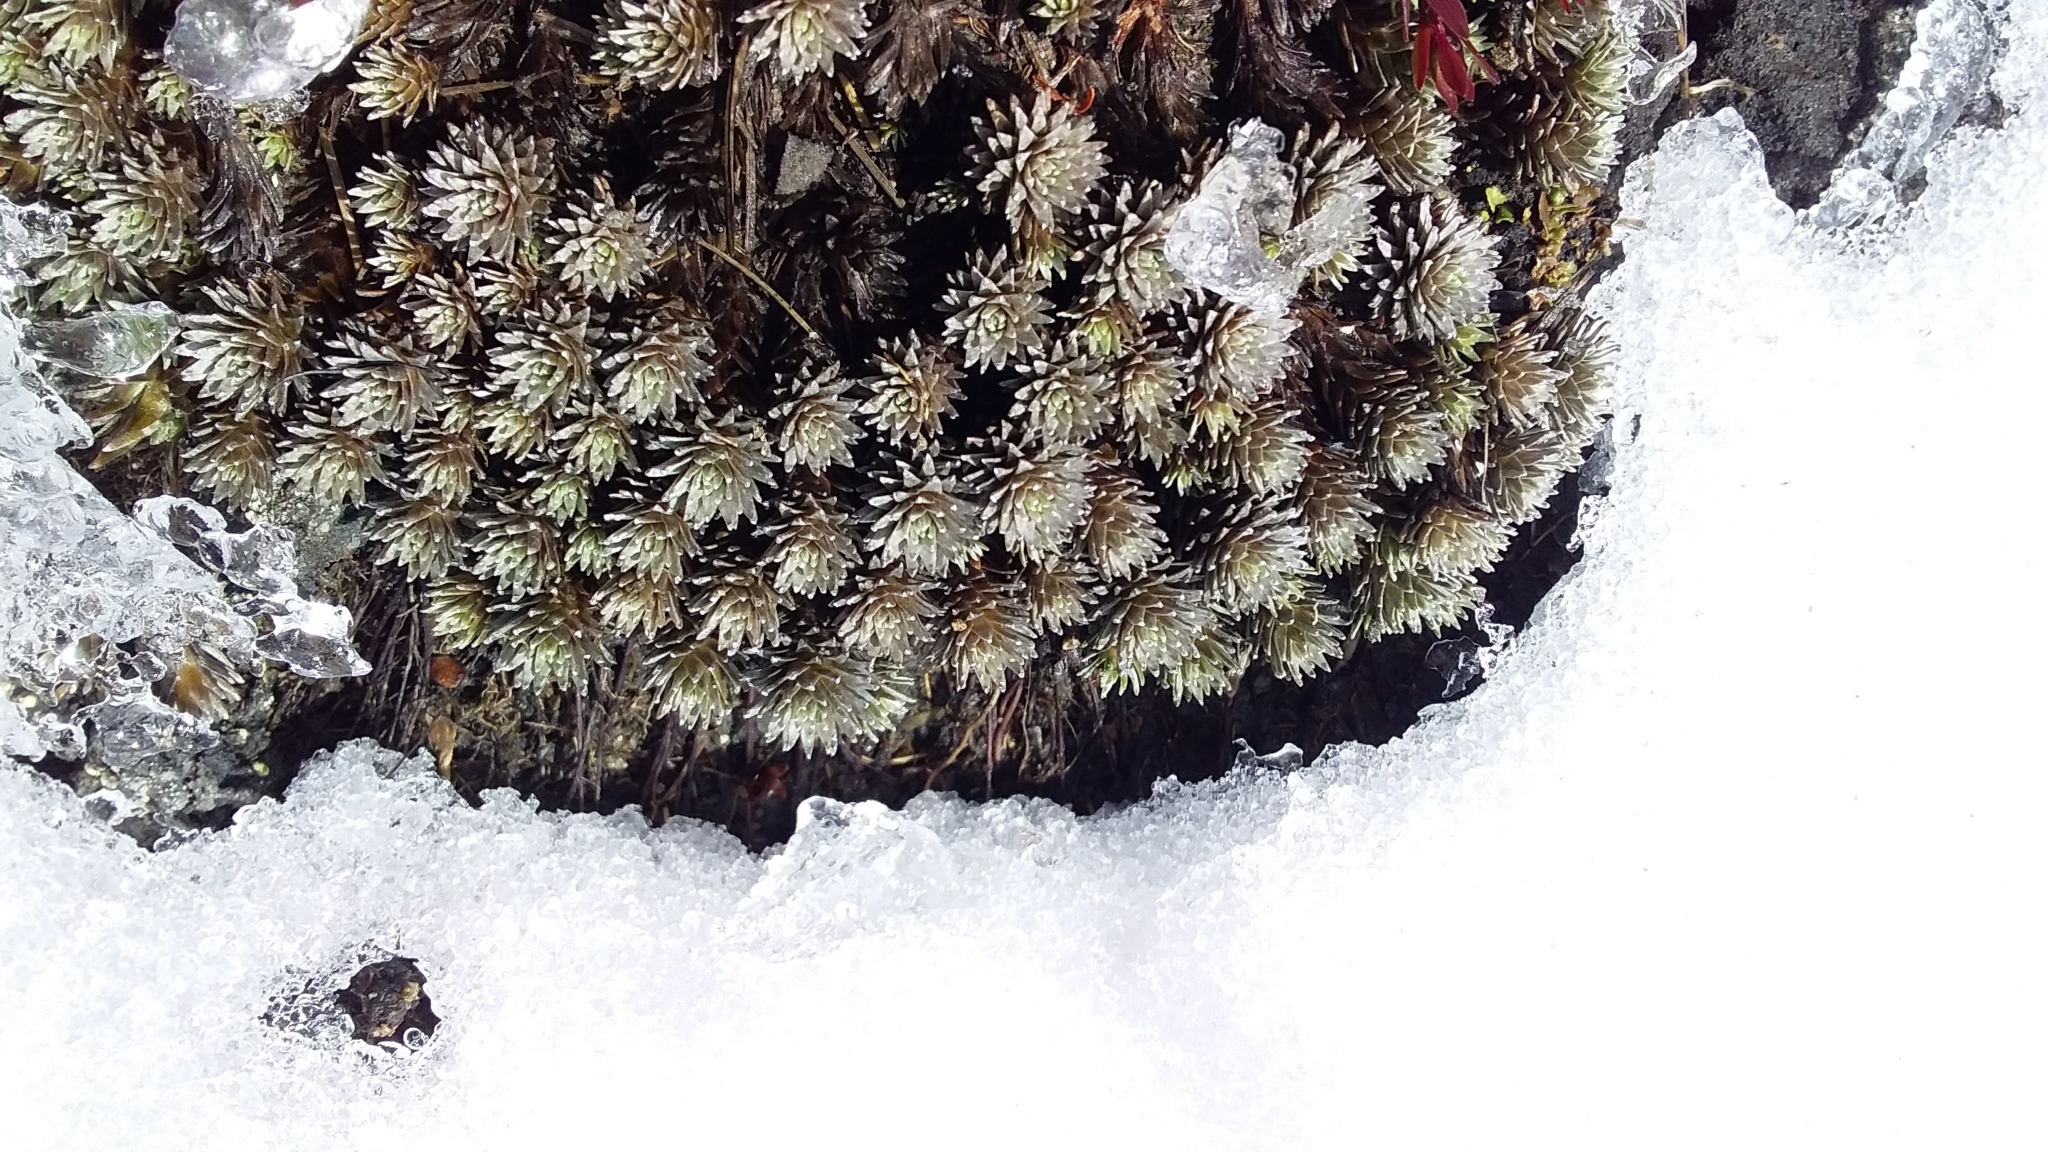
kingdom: Plantae
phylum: Tracheophyta
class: Magnoliopsida
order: Asterales
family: Asteraceae
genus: Raoulia
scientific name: Raoulia grandiflora
